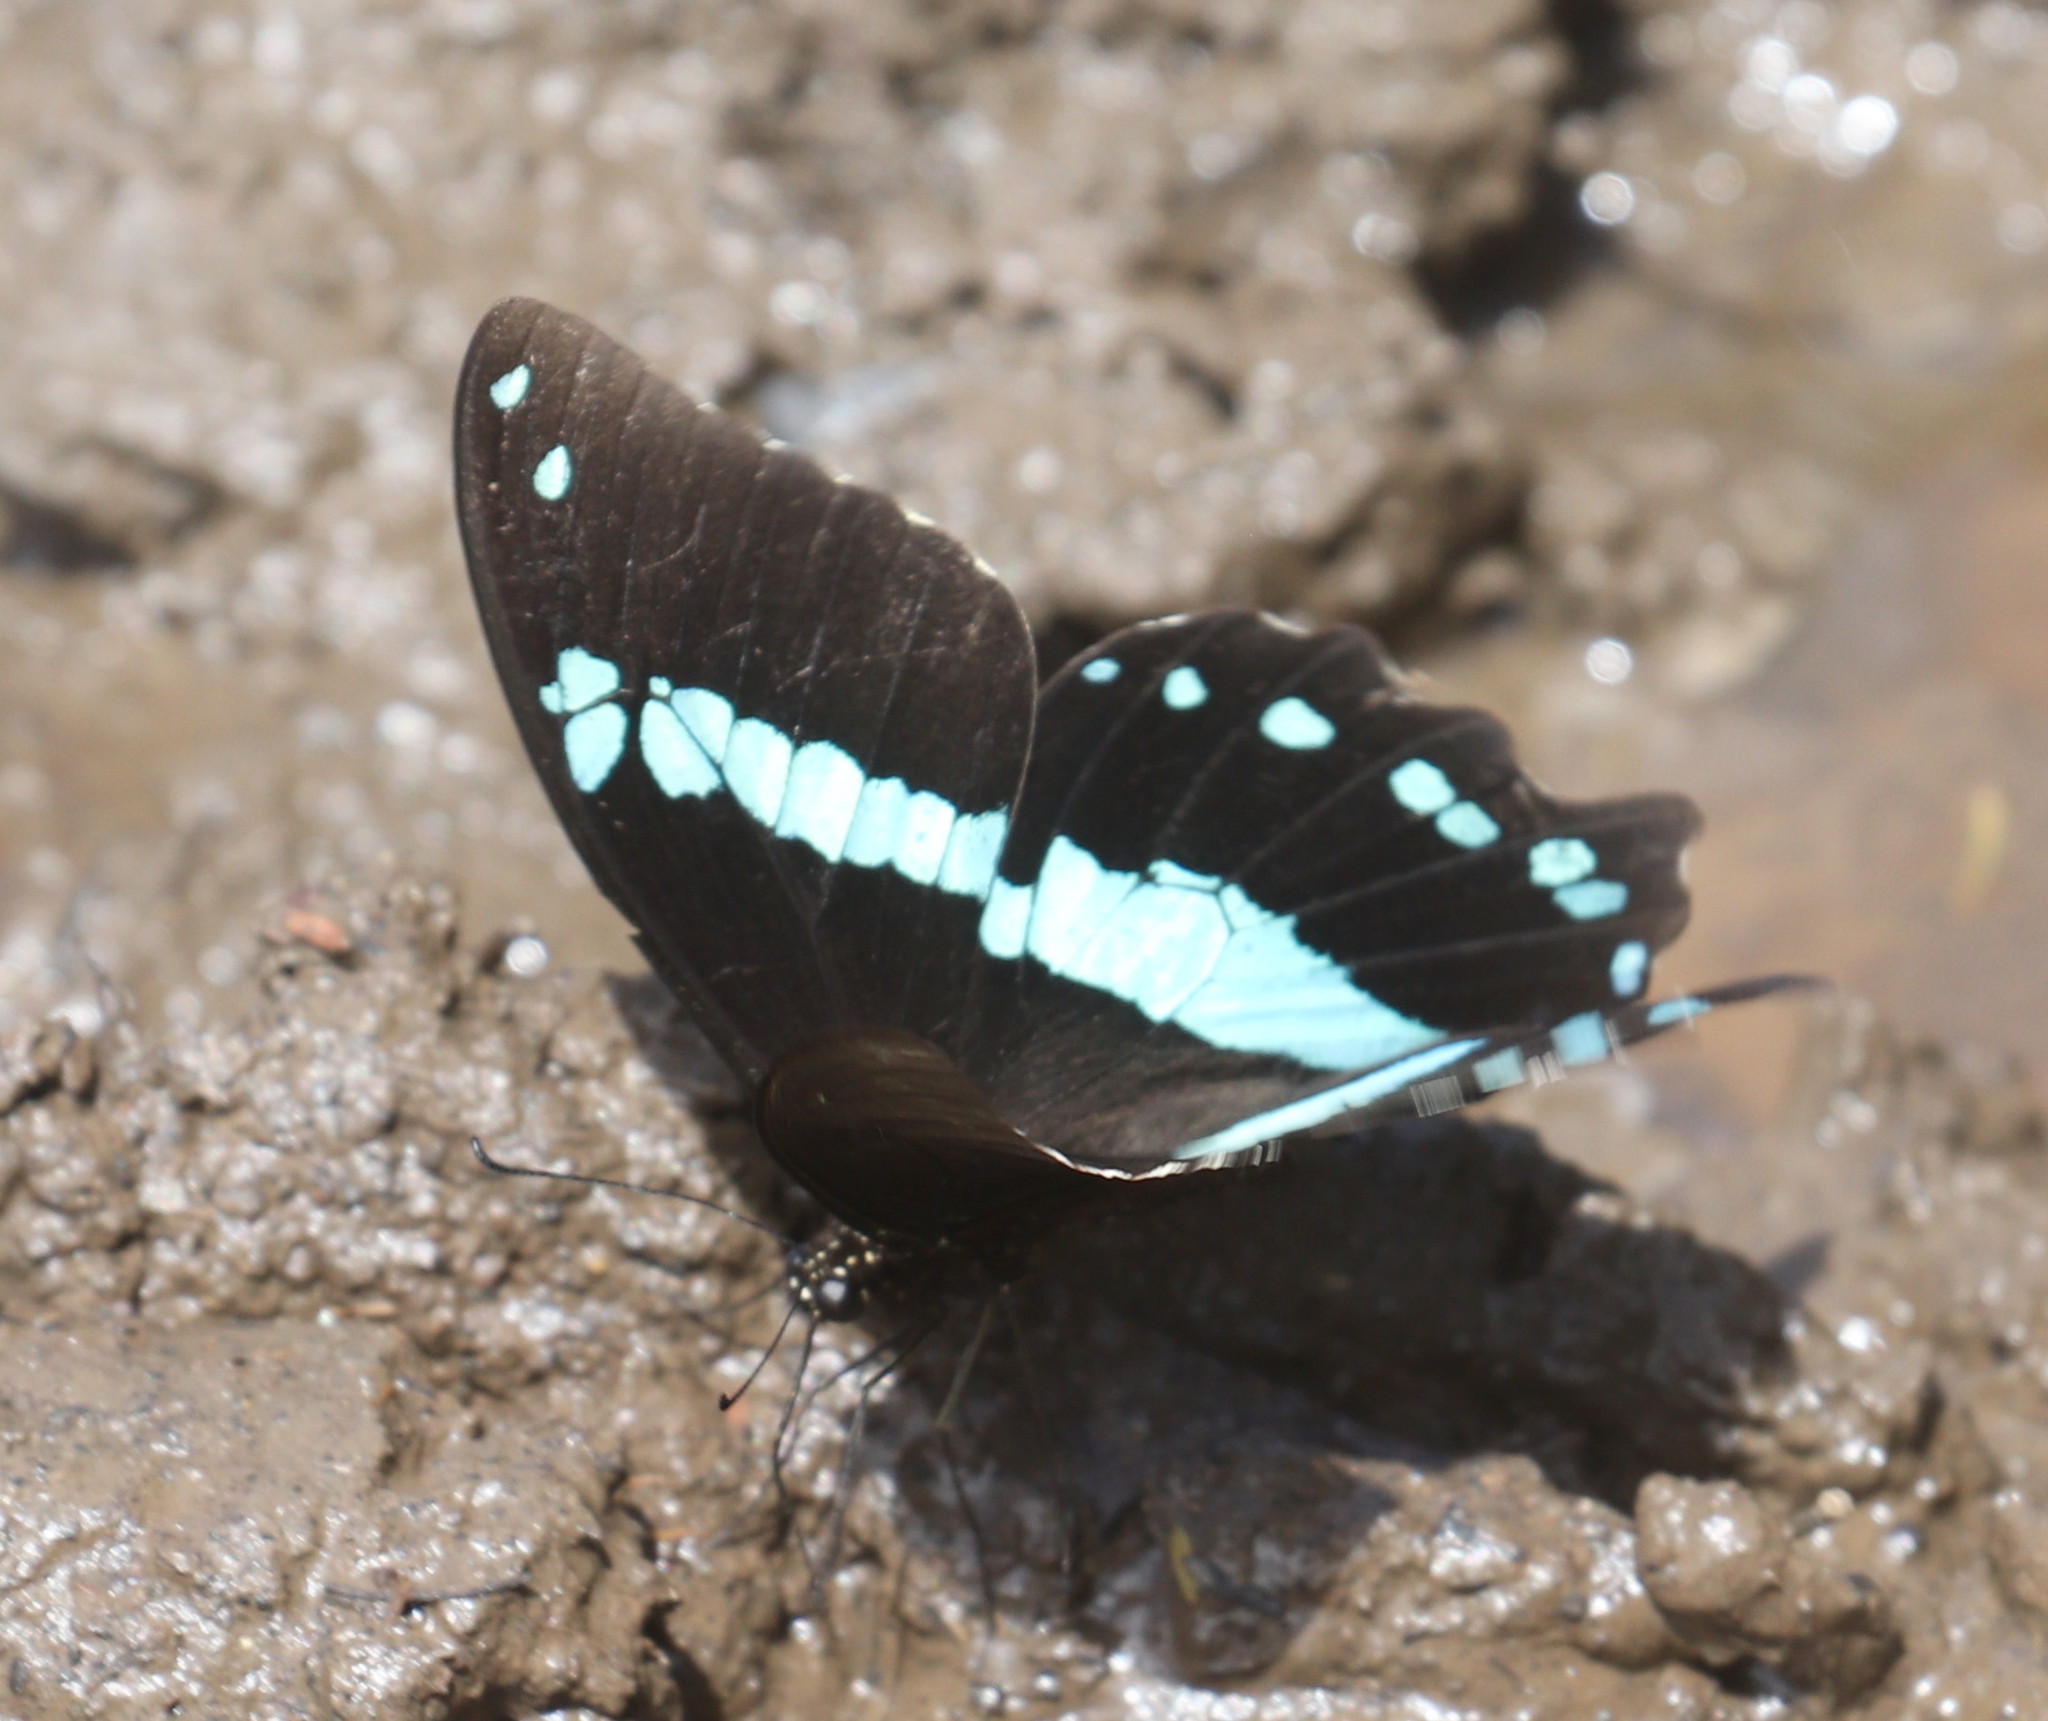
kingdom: Animalia
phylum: Arthropoda
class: Insecta
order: Lepidoptera
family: Papilionidae
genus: Papilio
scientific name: Papilio nireus
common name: Greenbanded swallowtail
